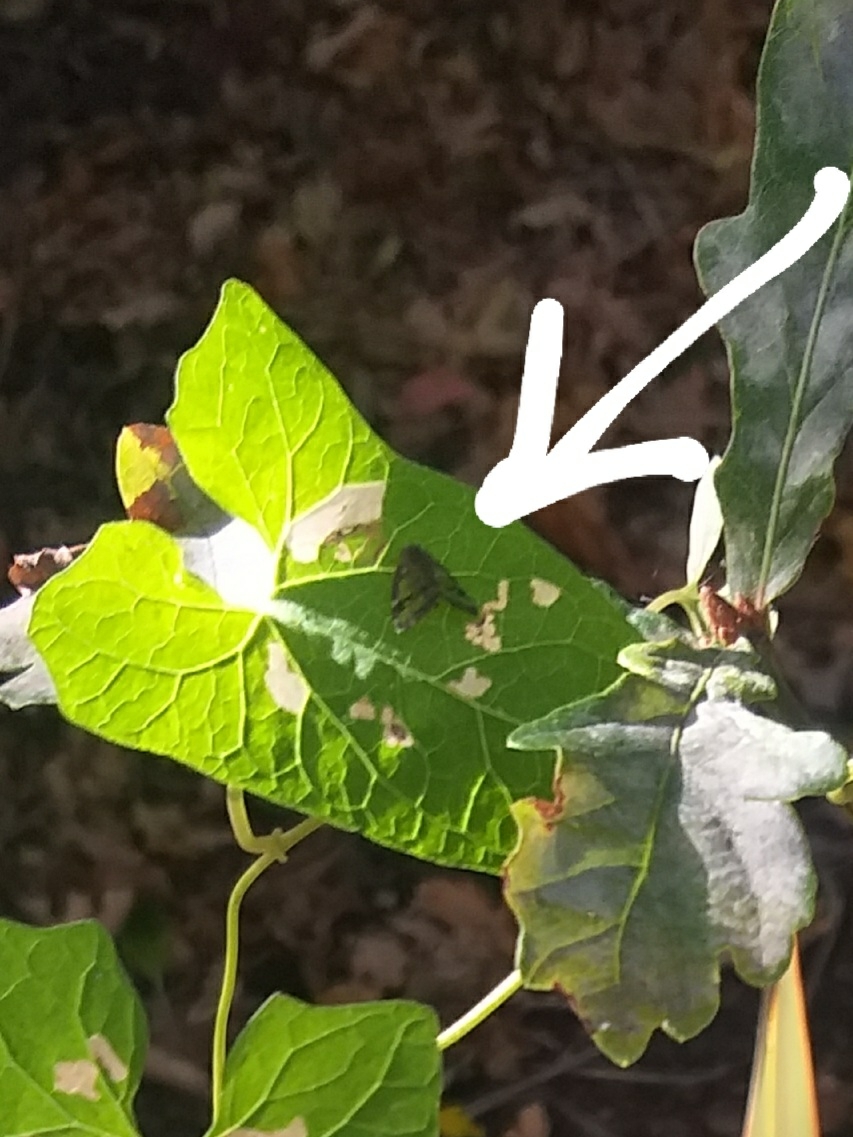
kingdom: Animalia
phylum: Arthropoda
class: Insecta
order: Hemiptera
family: Ricaniidae
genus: Scolypopa
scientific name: Scolypopa australis
